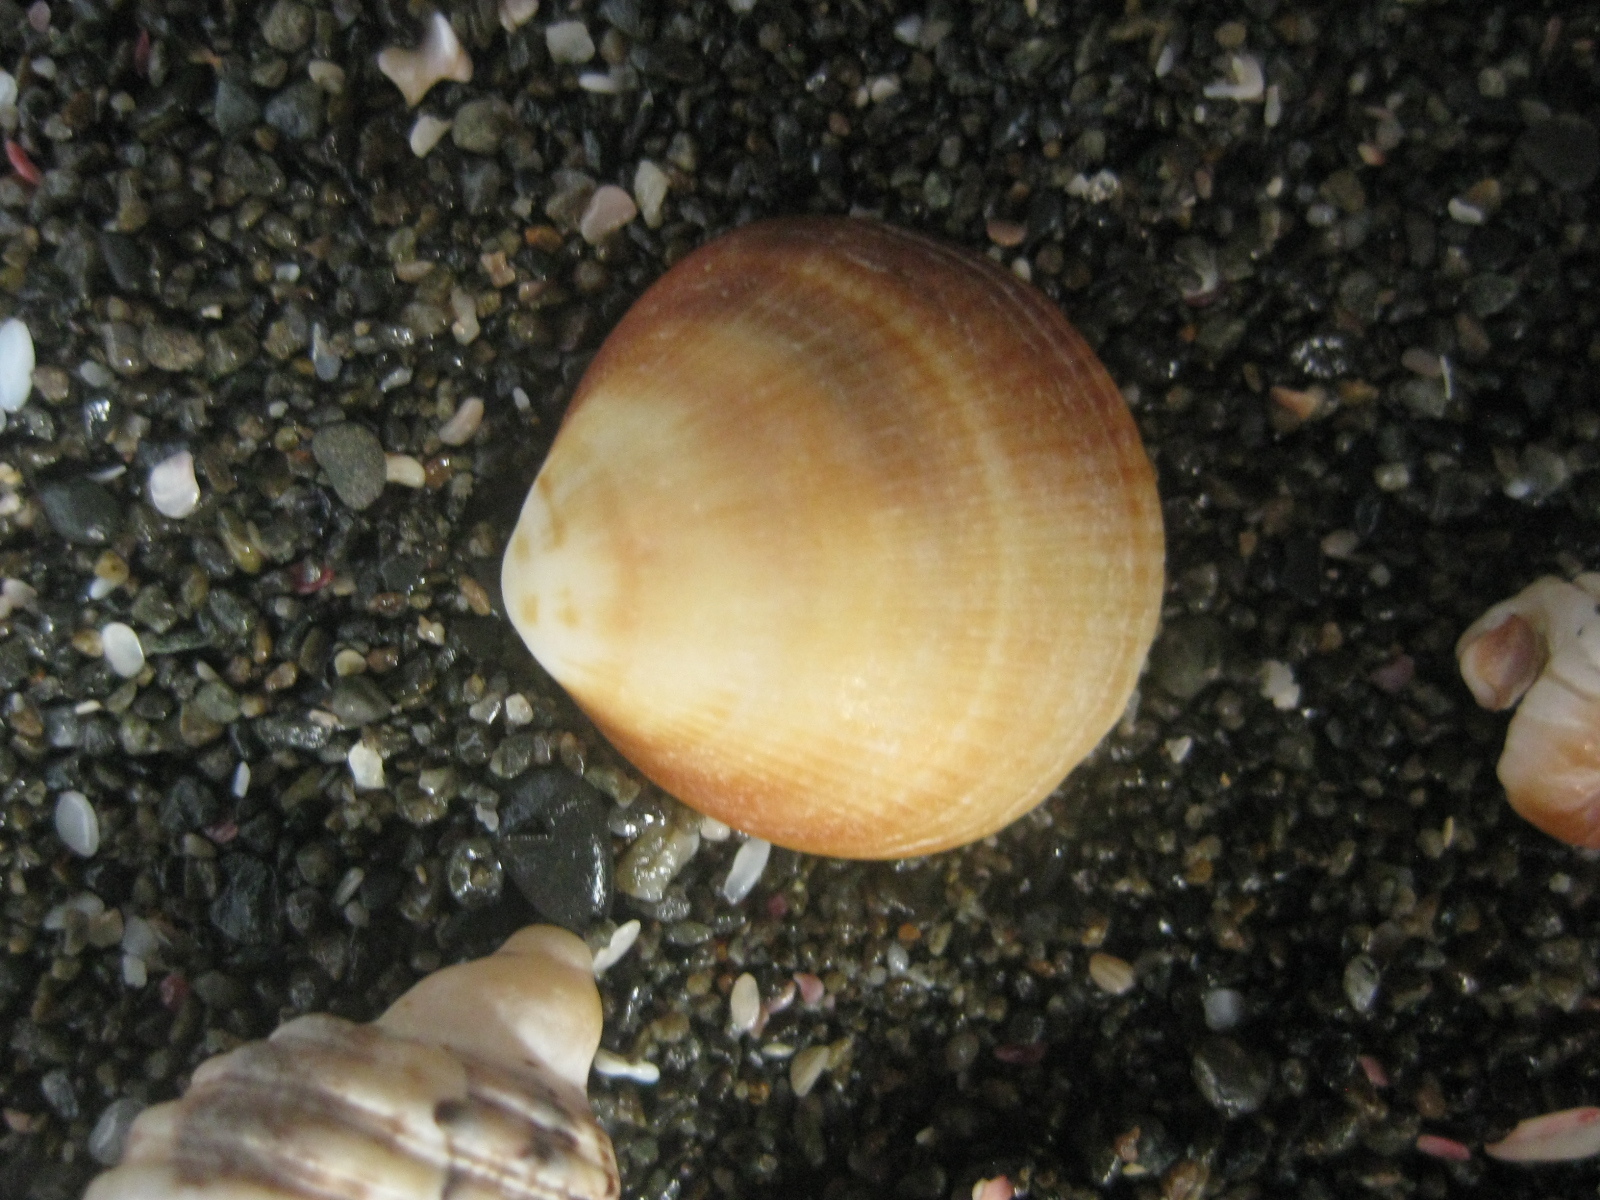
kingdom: Animalia
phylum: Mollusca
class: Bivalvia
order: Arcida
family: Glycymerididae
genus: Glycymeris
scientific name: Glycymeris modesta
